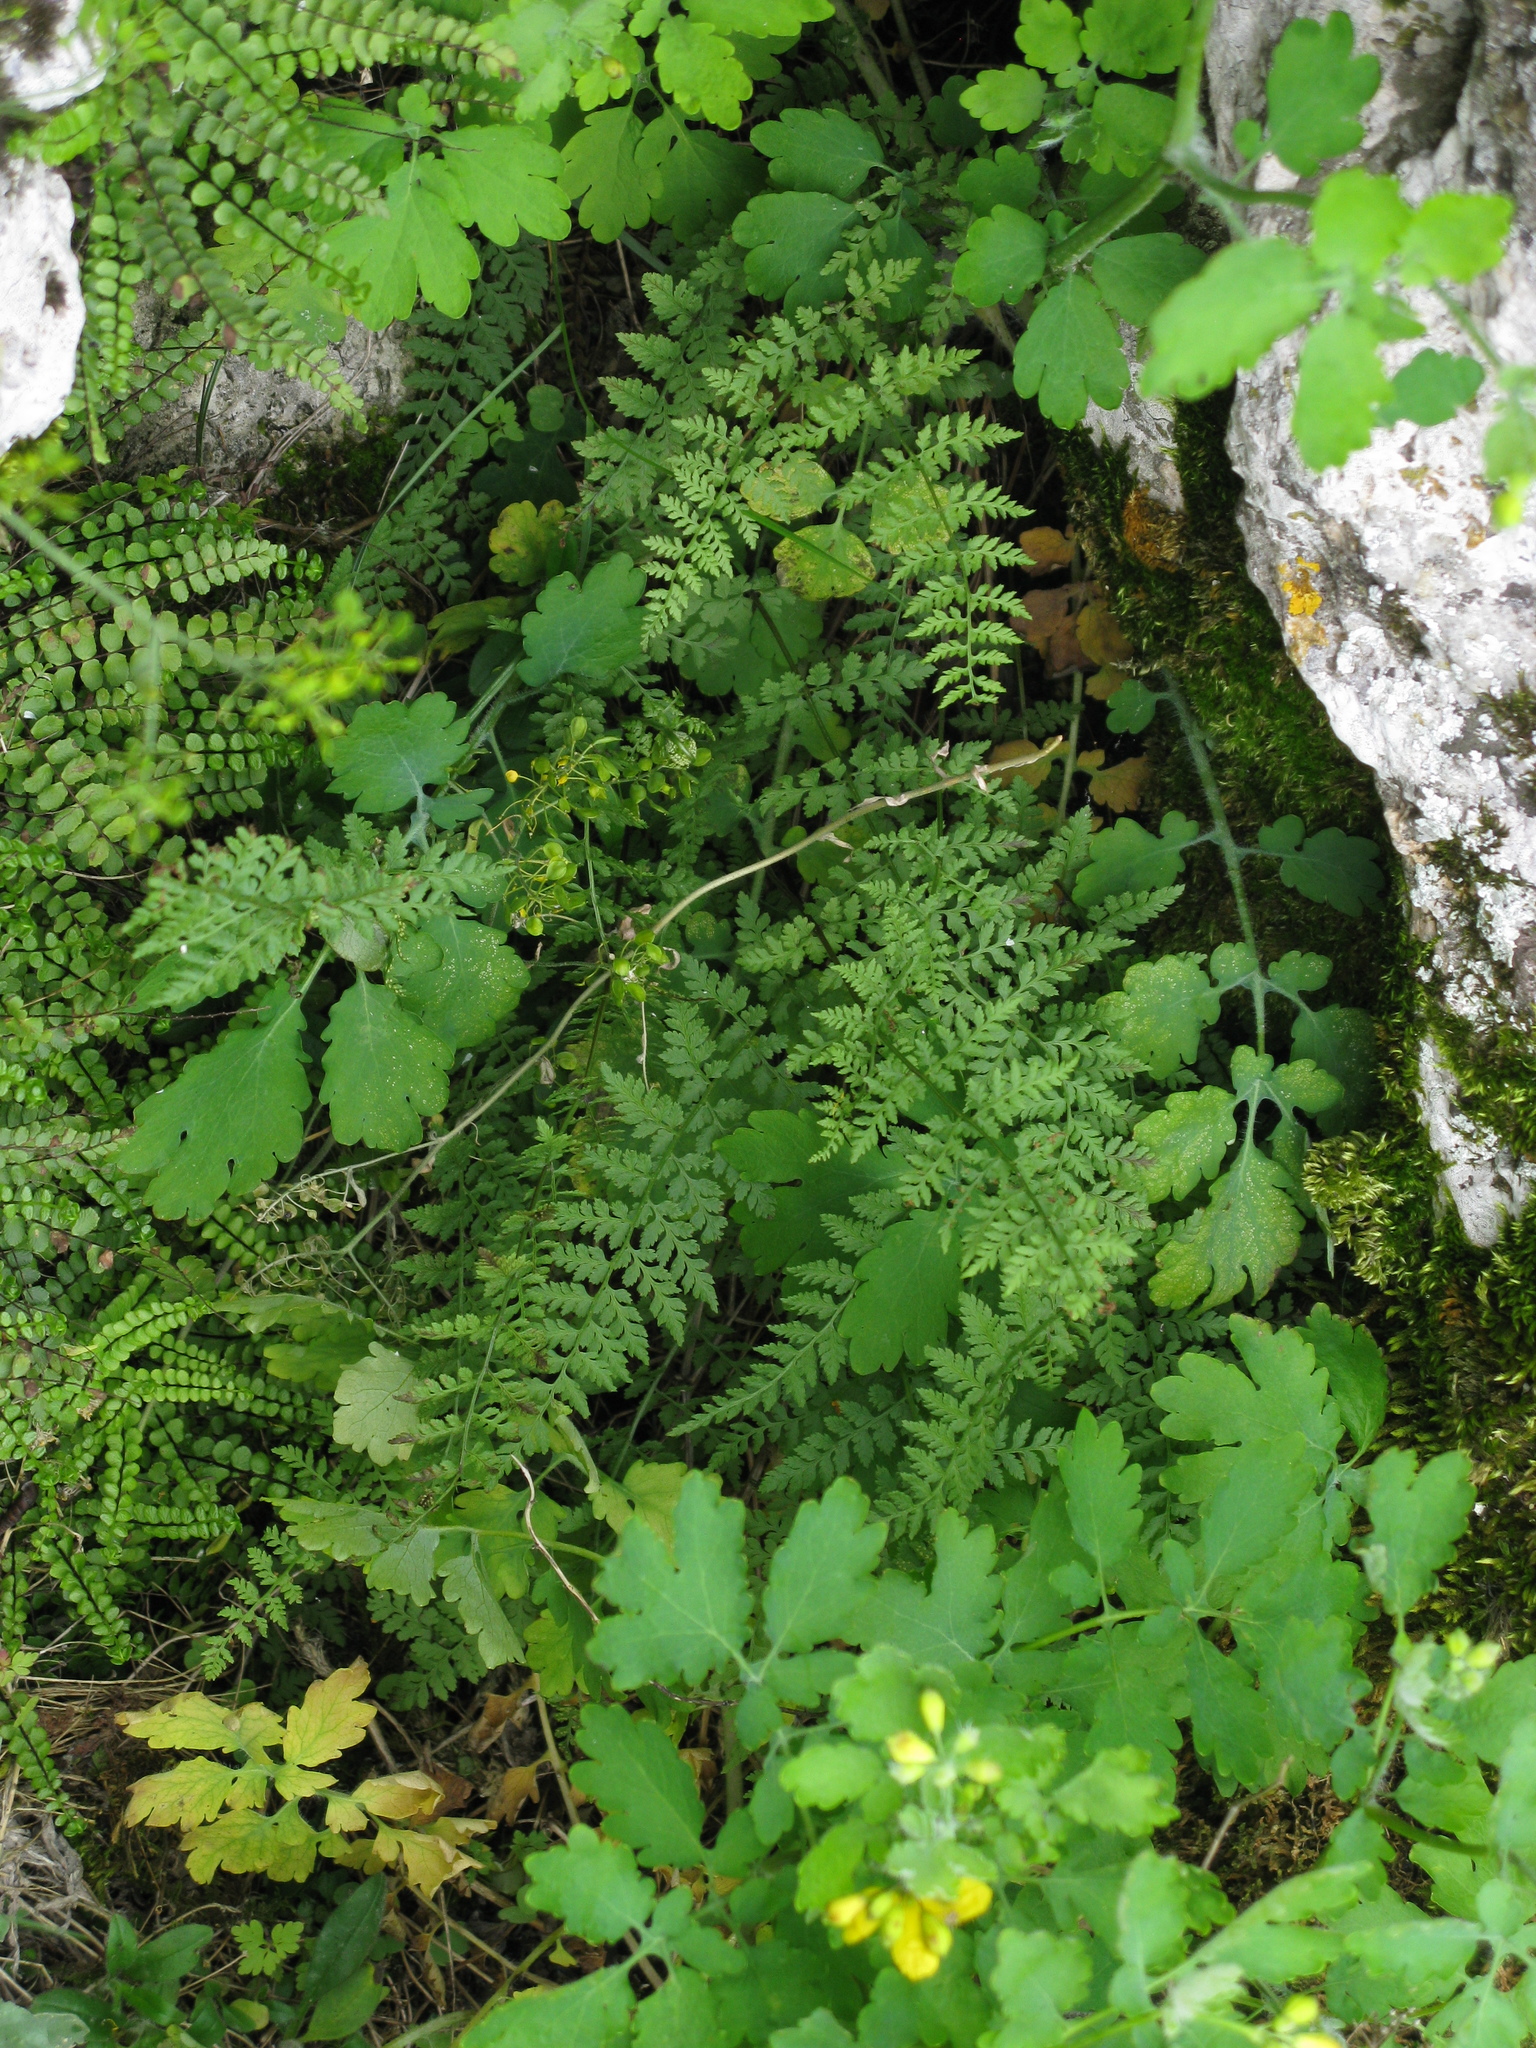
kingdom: Plantae
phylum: Tracheophyta
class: Polypodiopsida
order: Polypodiales
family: Cystopteridaceae
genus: Cystopteris
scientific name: Cystopteris fragilis
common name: Brittle bladder fern
